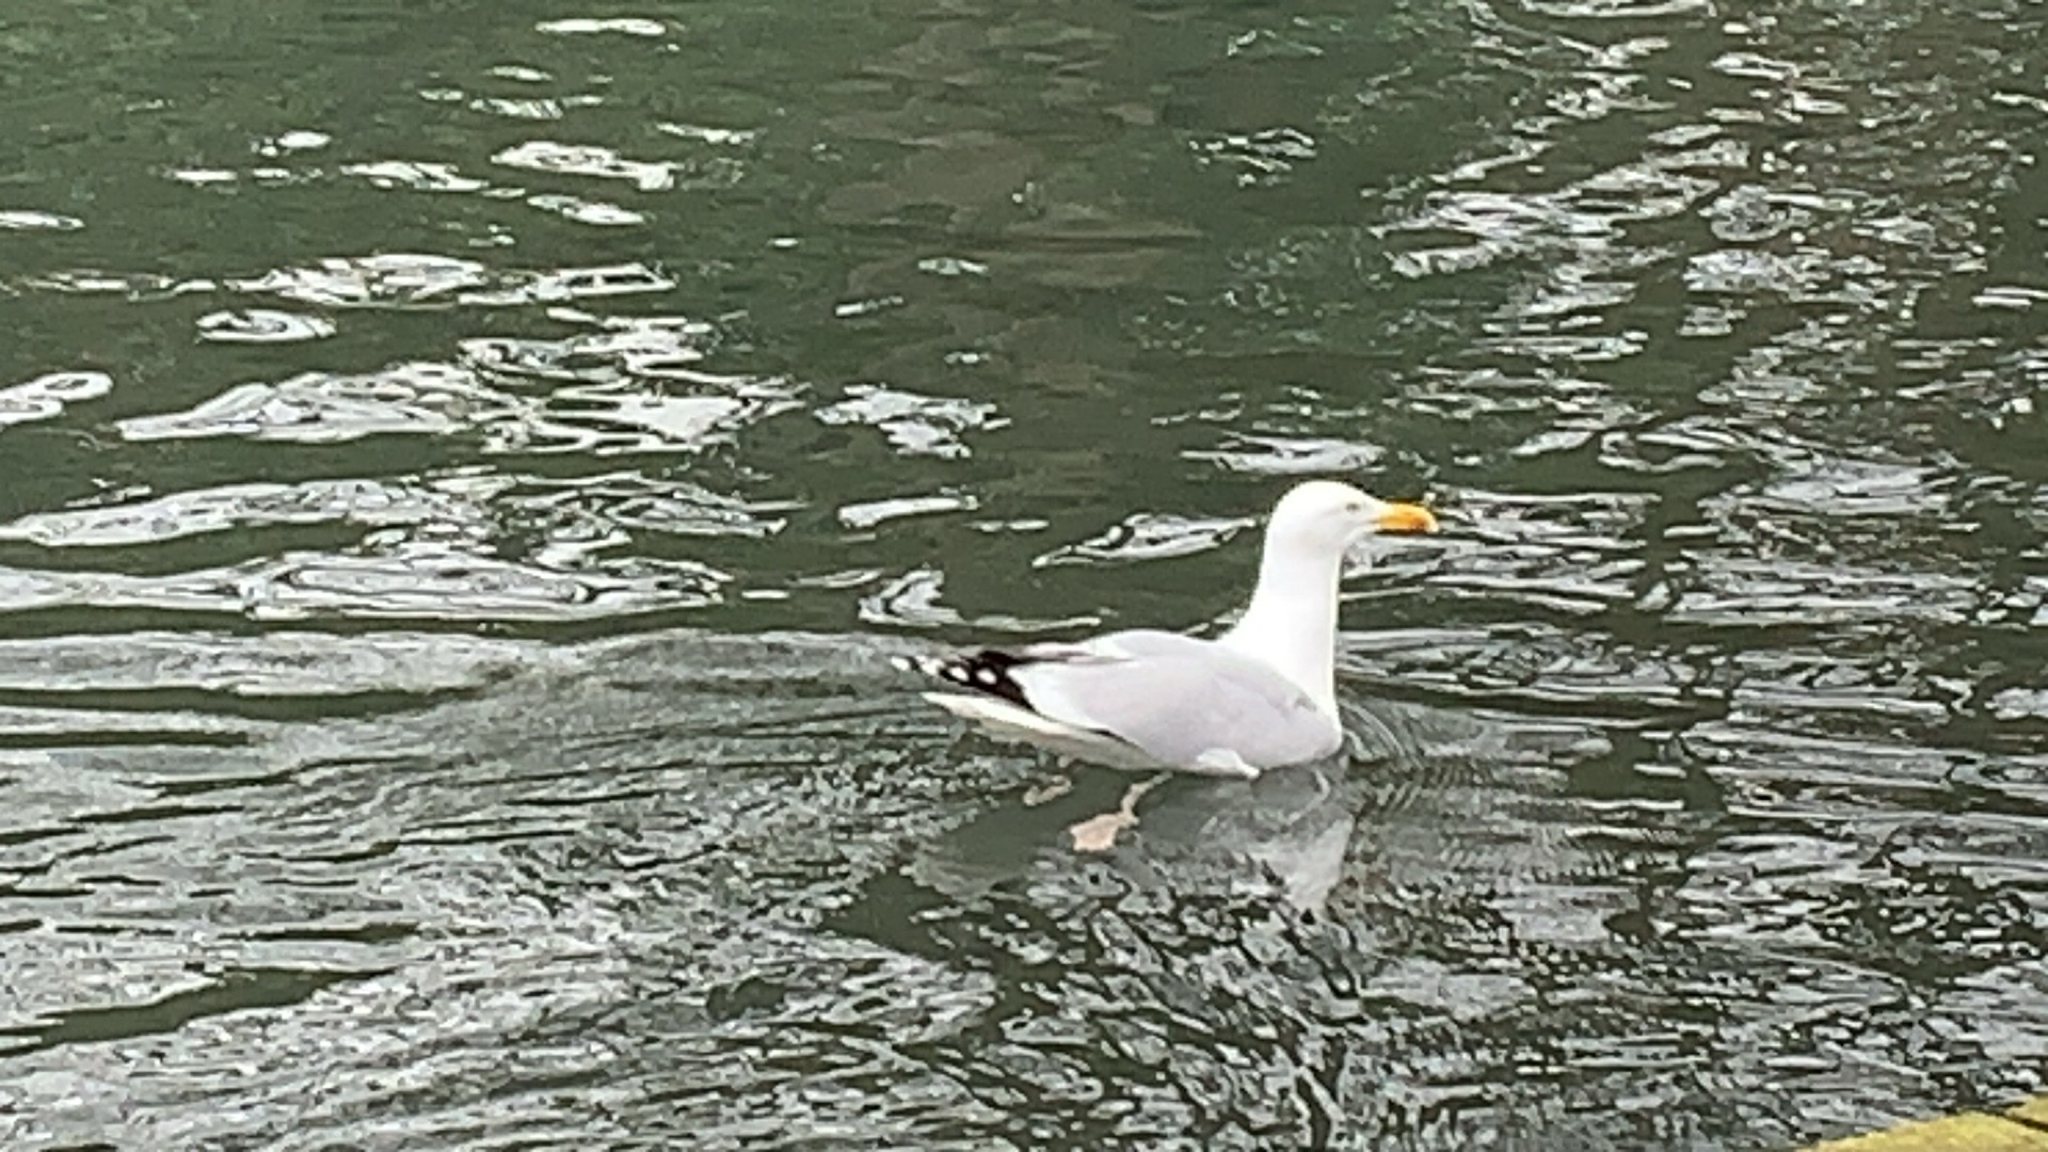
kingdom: Animalia
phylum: Chordata
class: Aves
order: Charadriiformes
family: Laridae
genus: Larus
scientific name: Larus argentatus
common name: Herring gull
